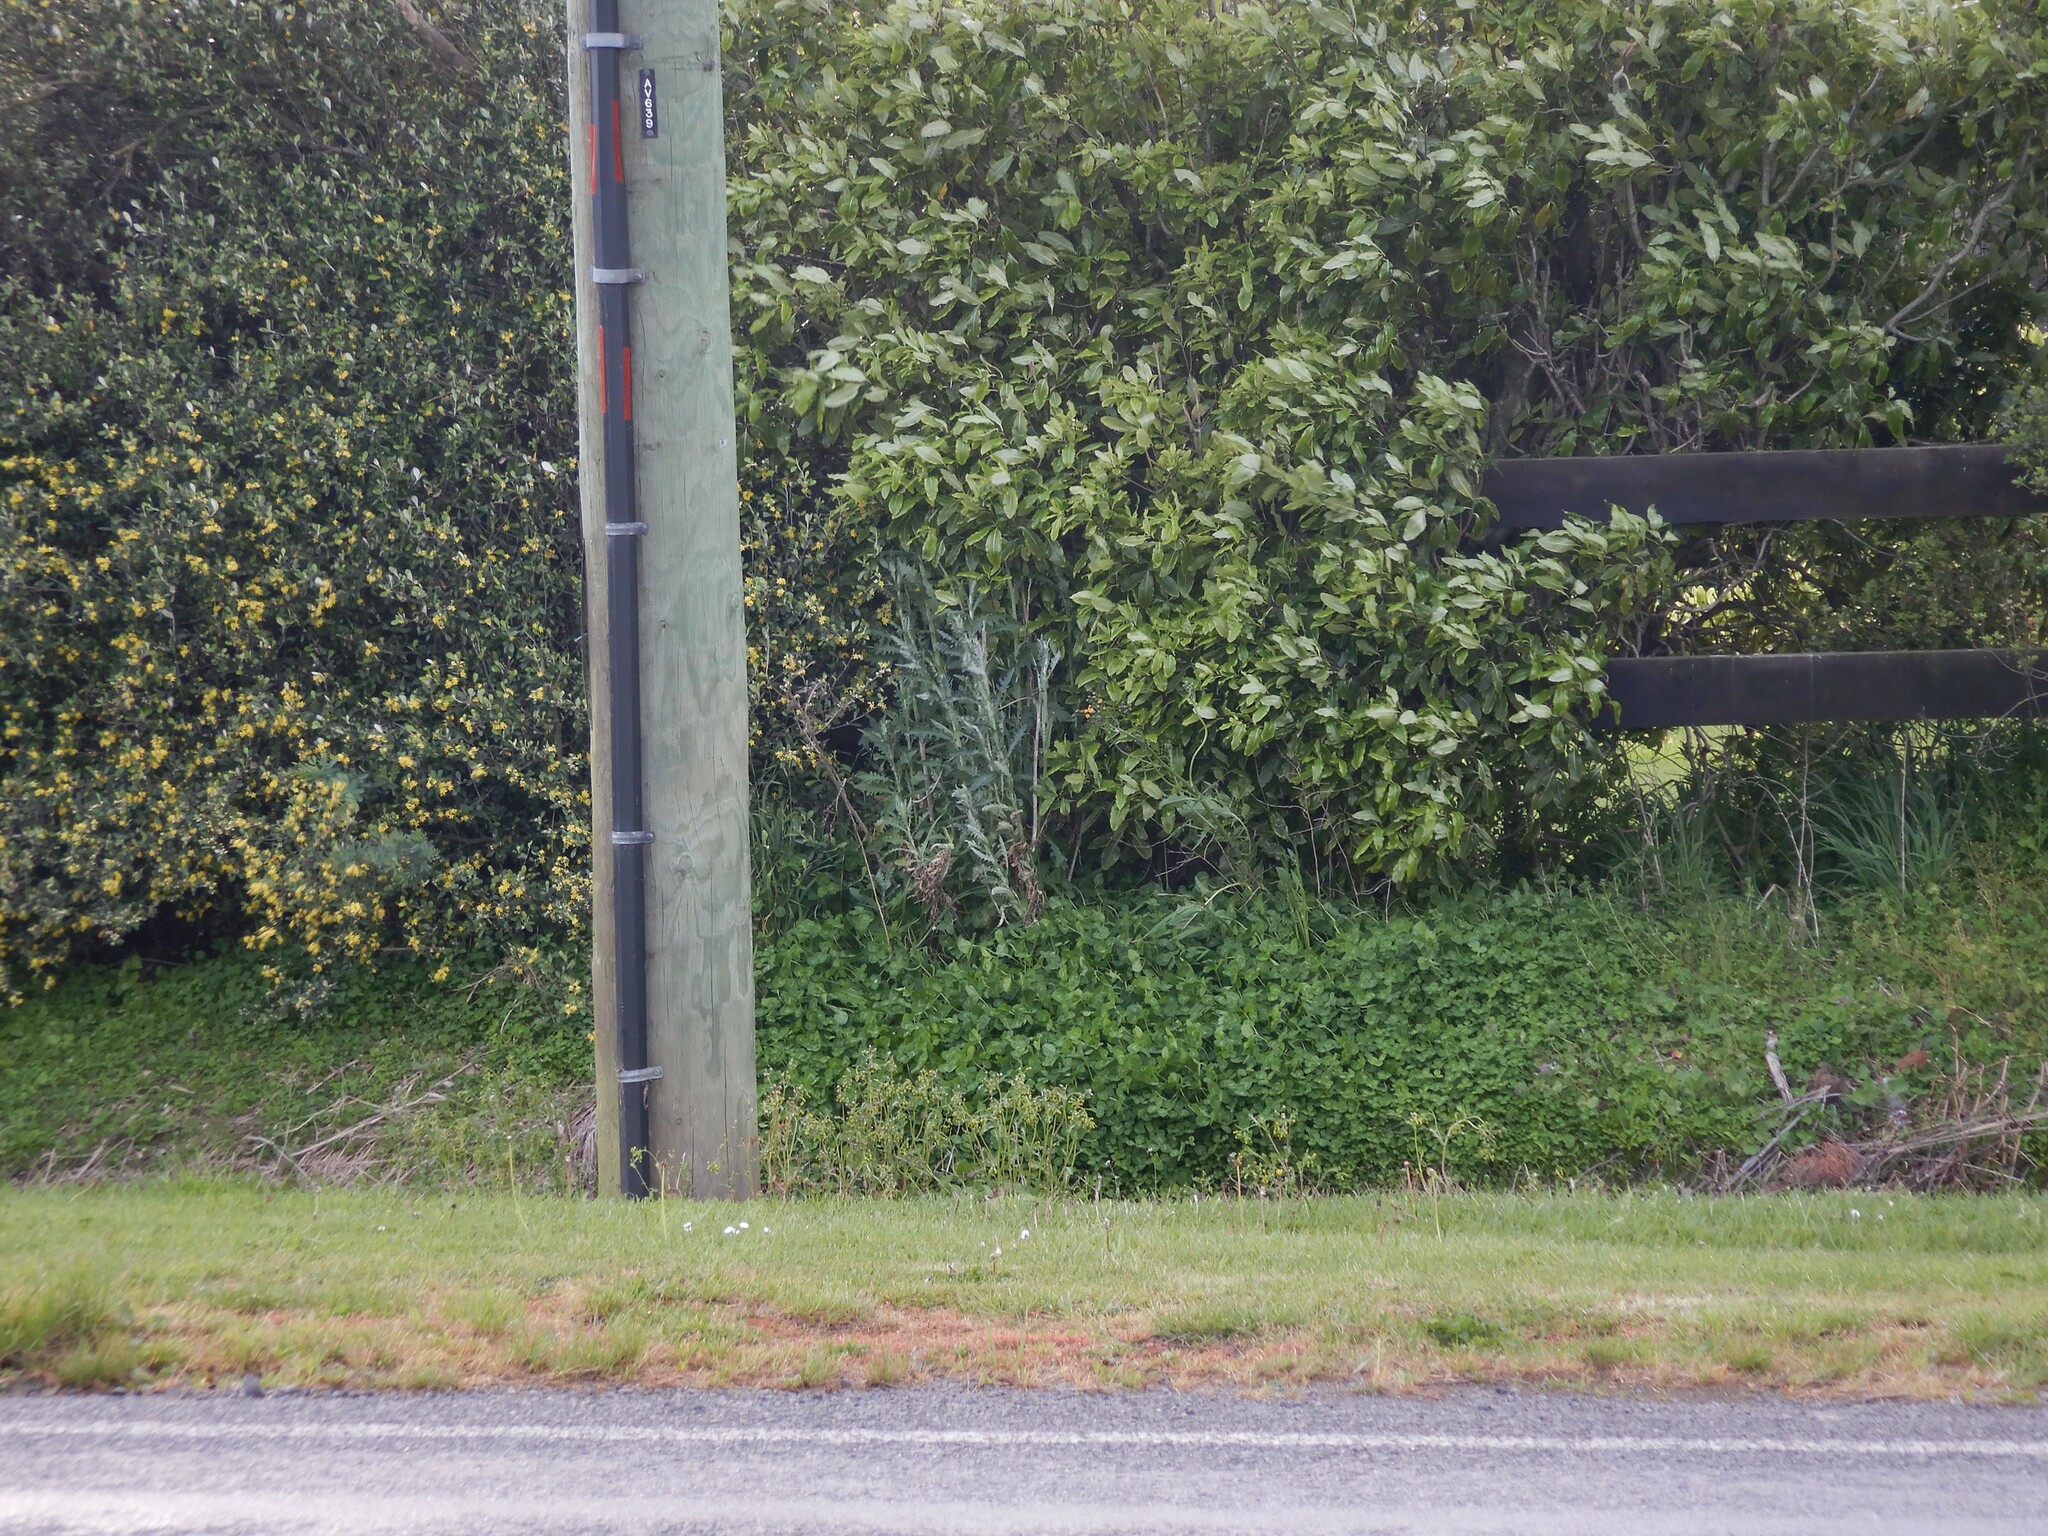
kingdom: Plantae
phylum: Tracheophyta
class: Magnoliopsida
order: Asterales
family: Asteraceae
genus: Senecio
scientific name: Senecio glomeratus
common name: Cutleaf burnweed
